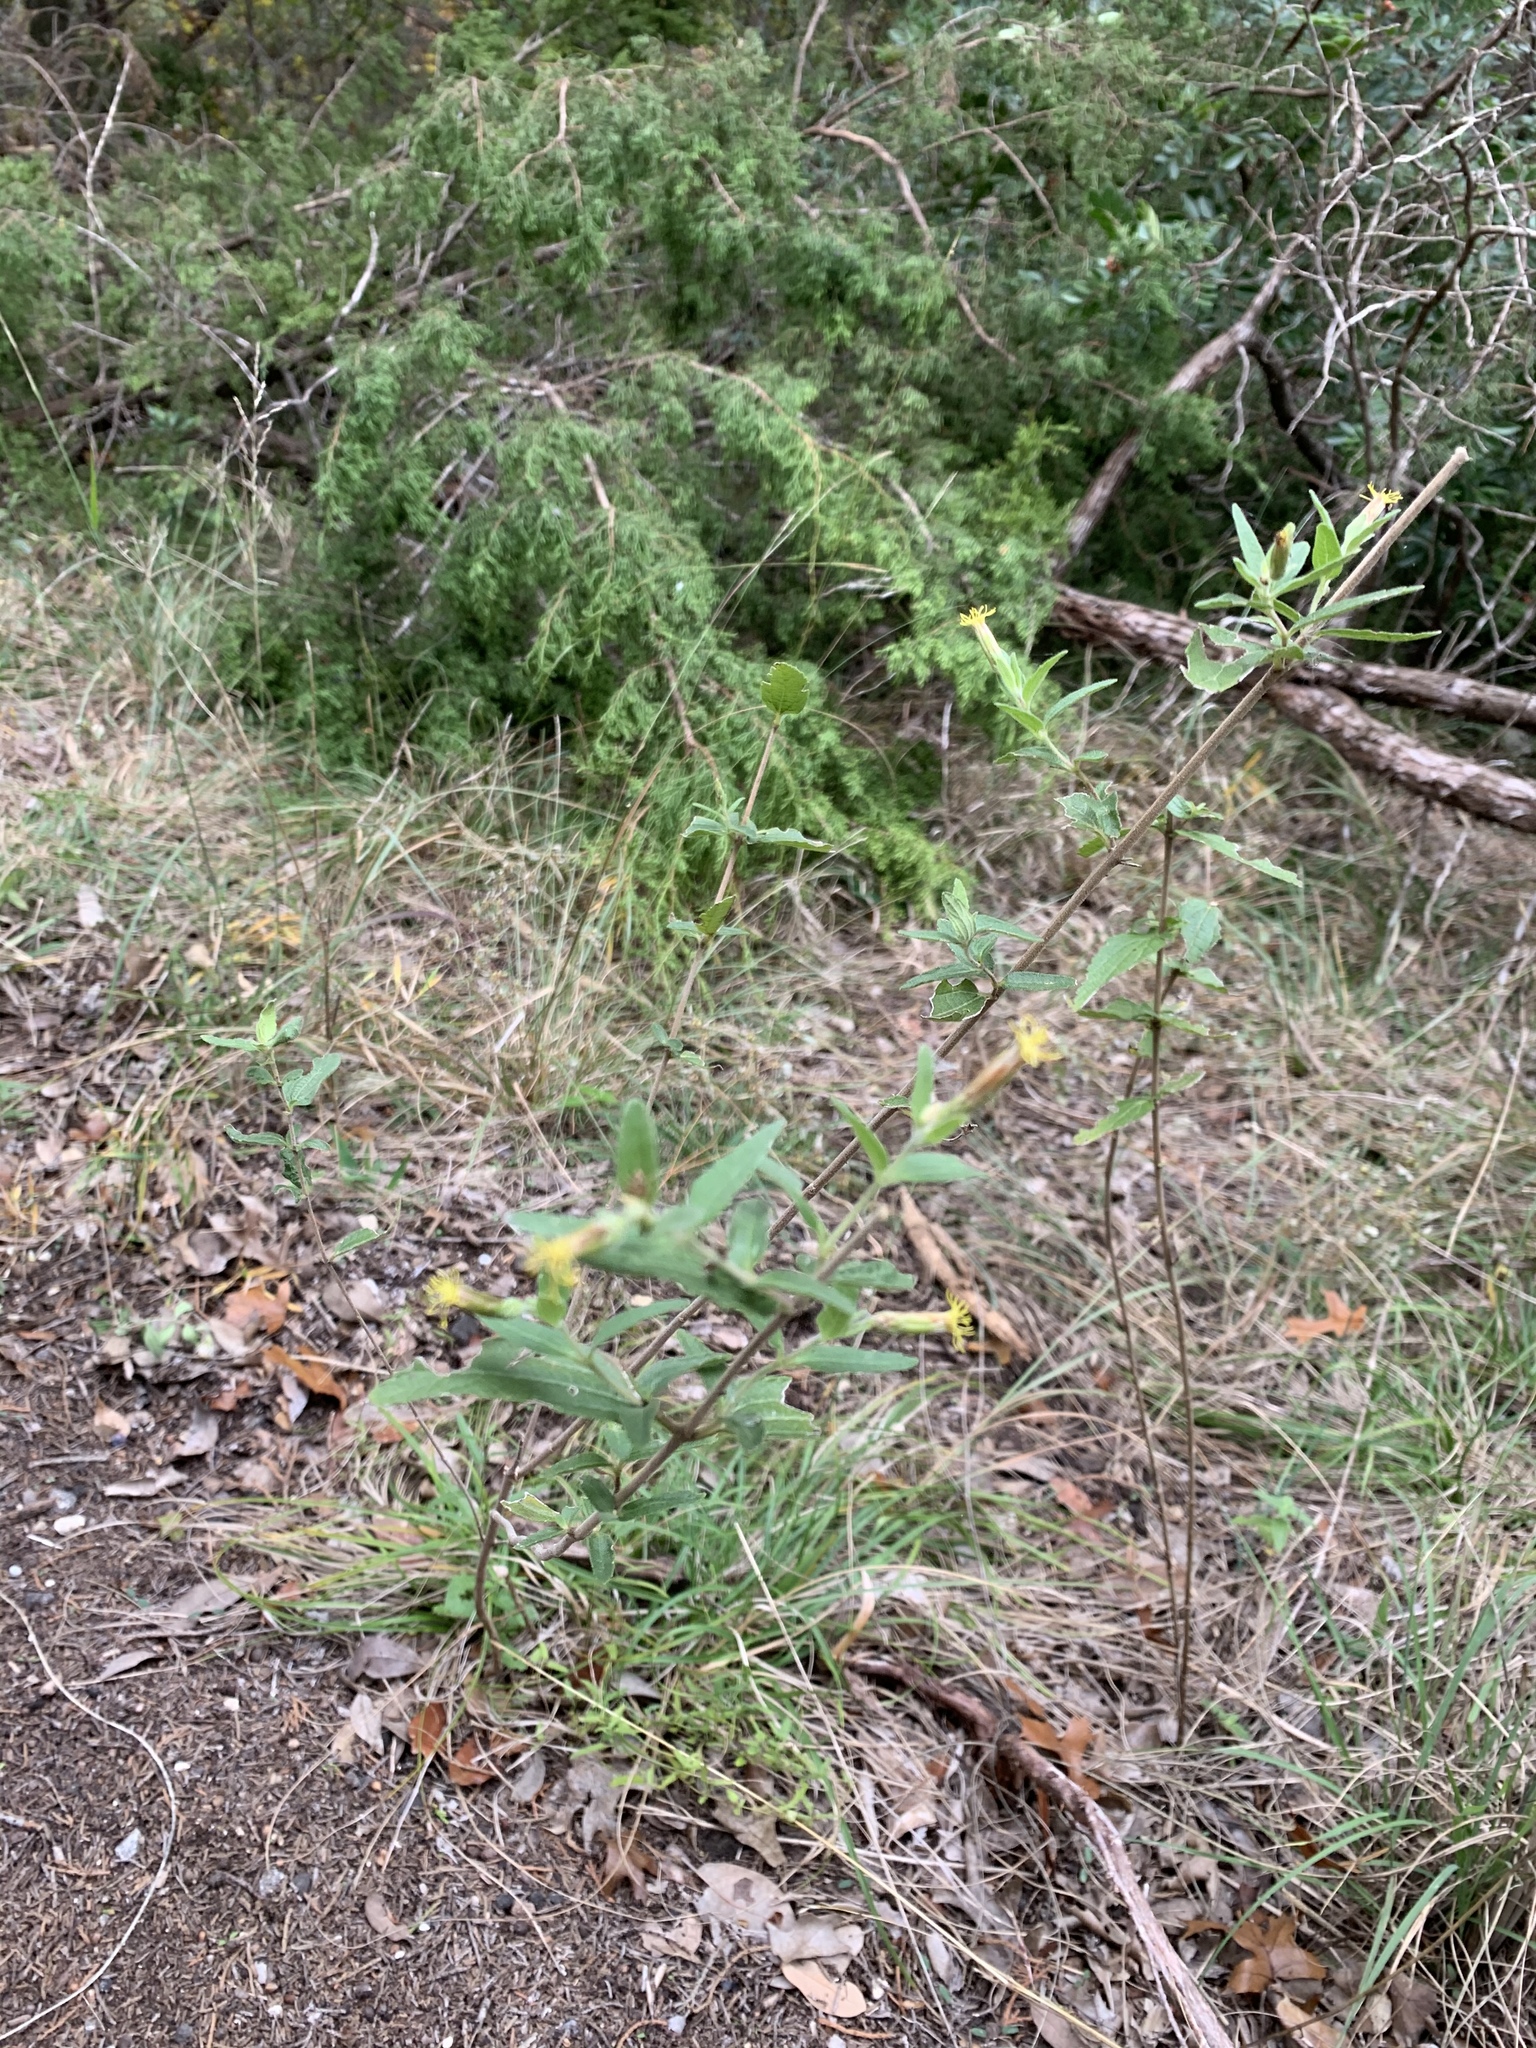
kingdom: Plantae
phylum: Tracheophyta
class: Magnoliopsida
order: Asterales
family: Asteraceae
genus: Brickellia
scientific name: Brickellia cylindracea
